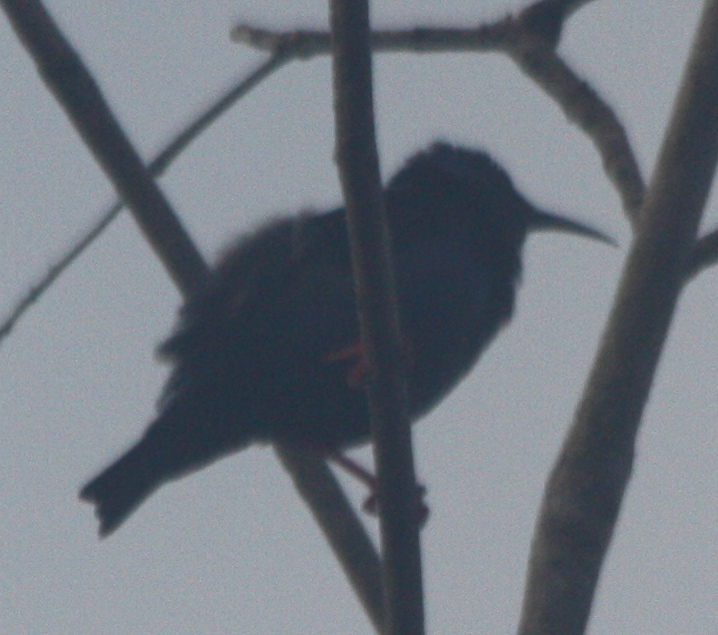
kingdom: Animalia
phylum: Chordata
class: Aves
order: Passeriformes
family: Thraupidae
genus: Cyanerpes
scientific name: Cyanerpes cyaneus
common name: Red-legged honeycreeper
